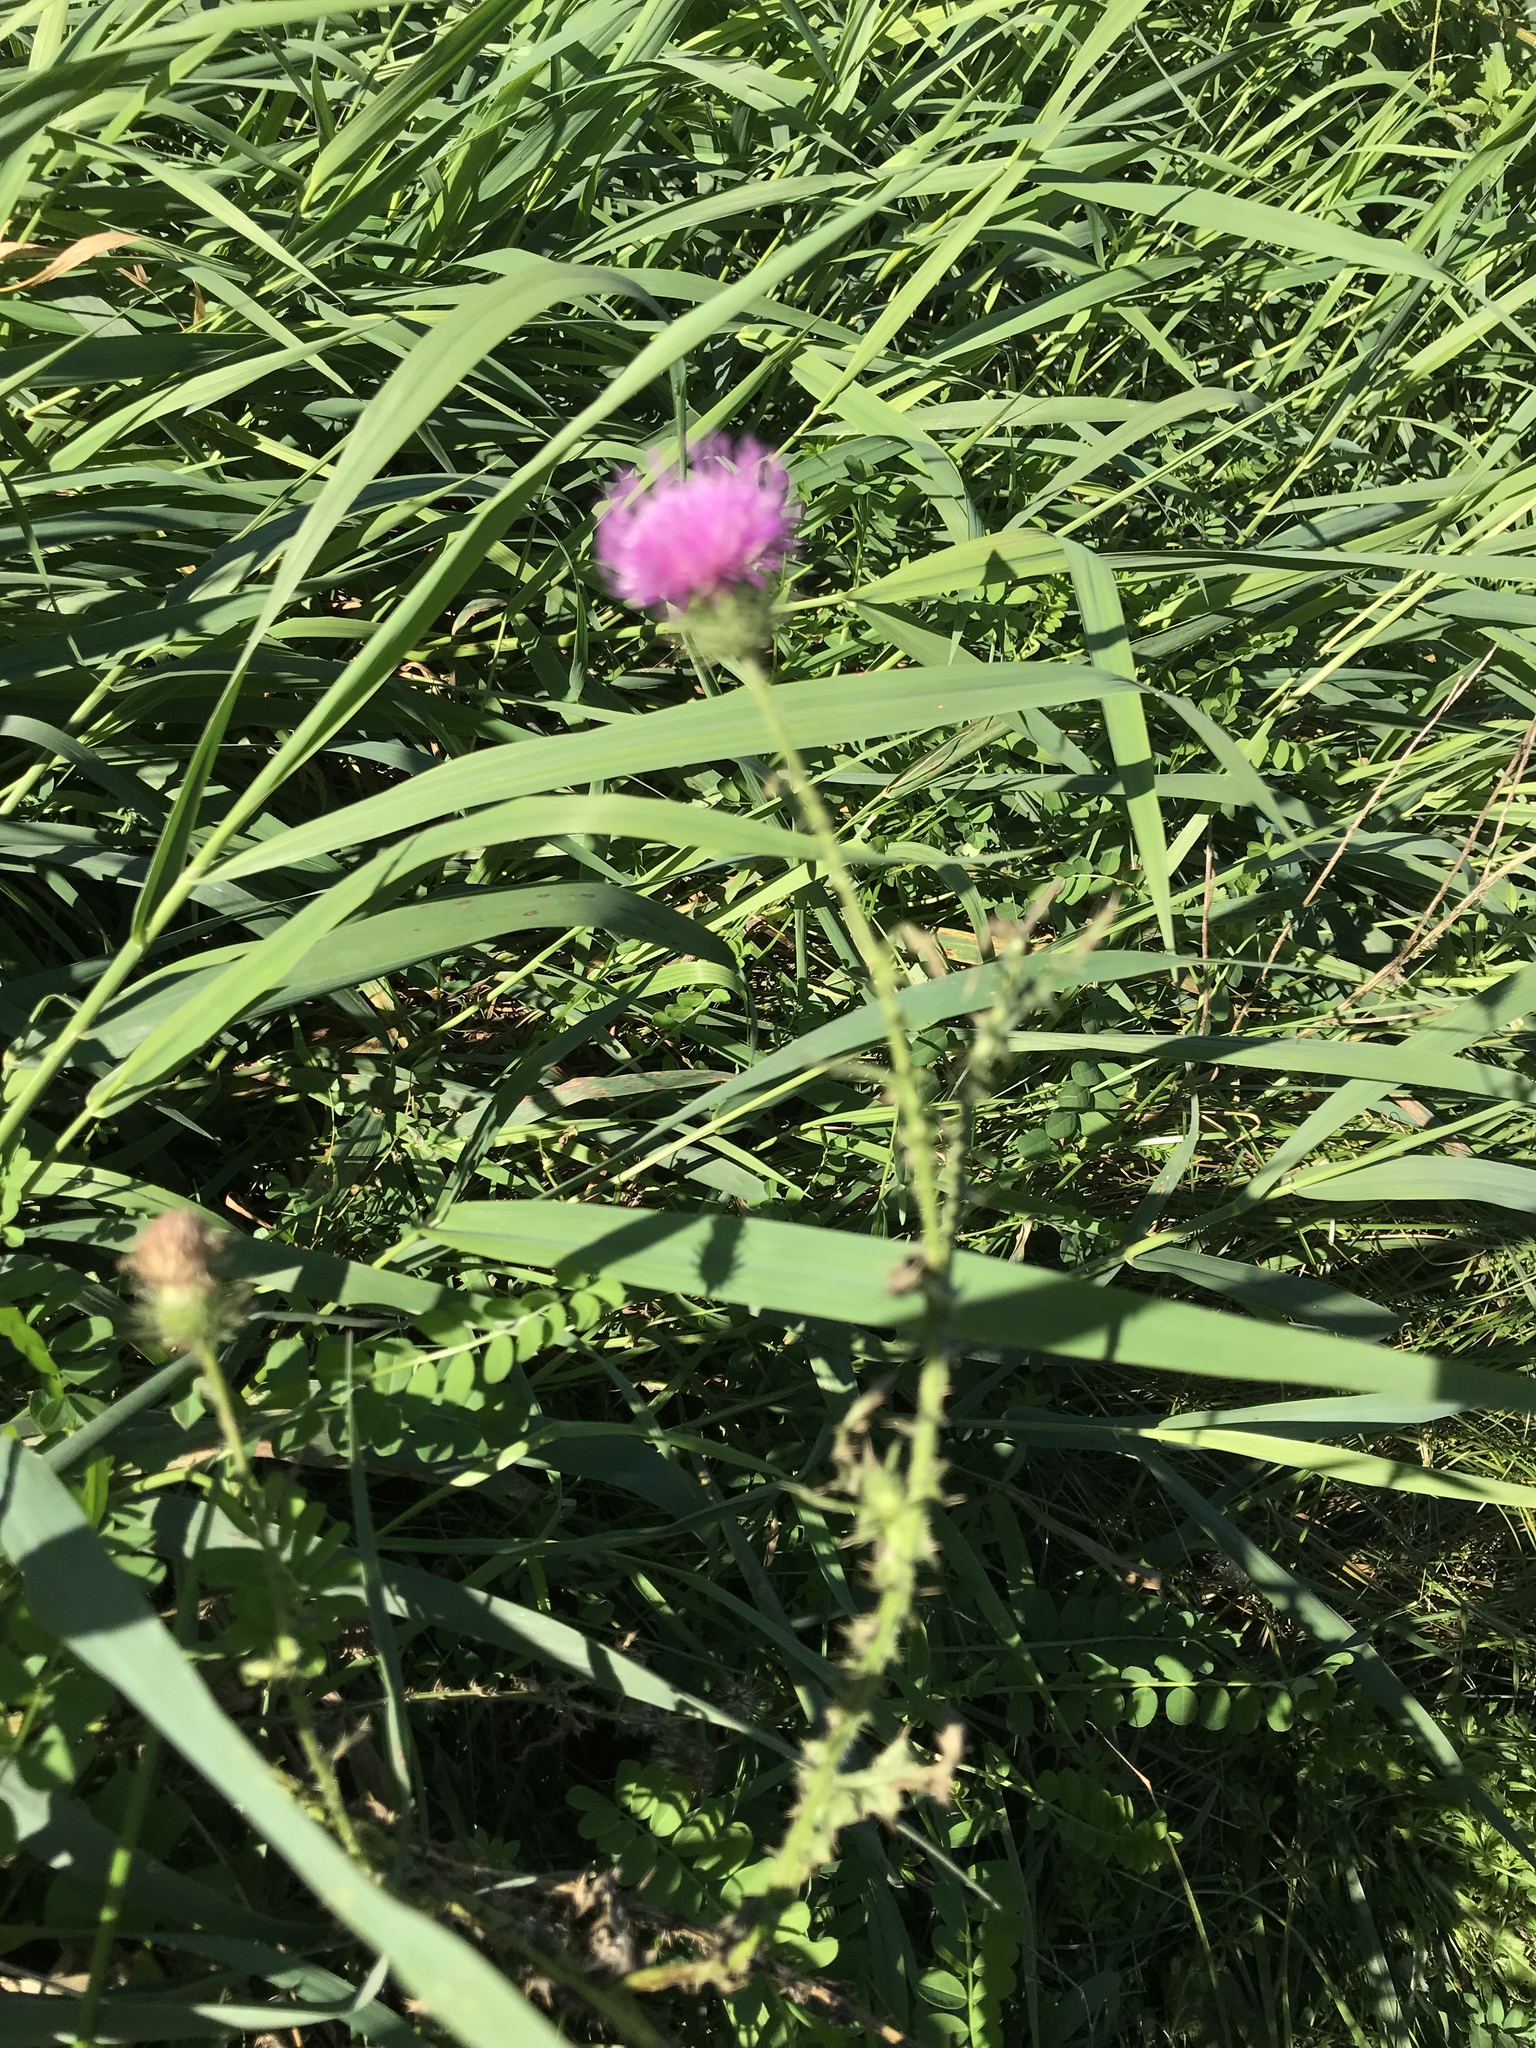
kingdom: Plantae
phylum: Tracheophyta
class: Magnoliopsida
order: Asterales
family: Asteraceae
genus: Carduus
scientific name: Carduus acanthoides
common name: Plumeless thistle
